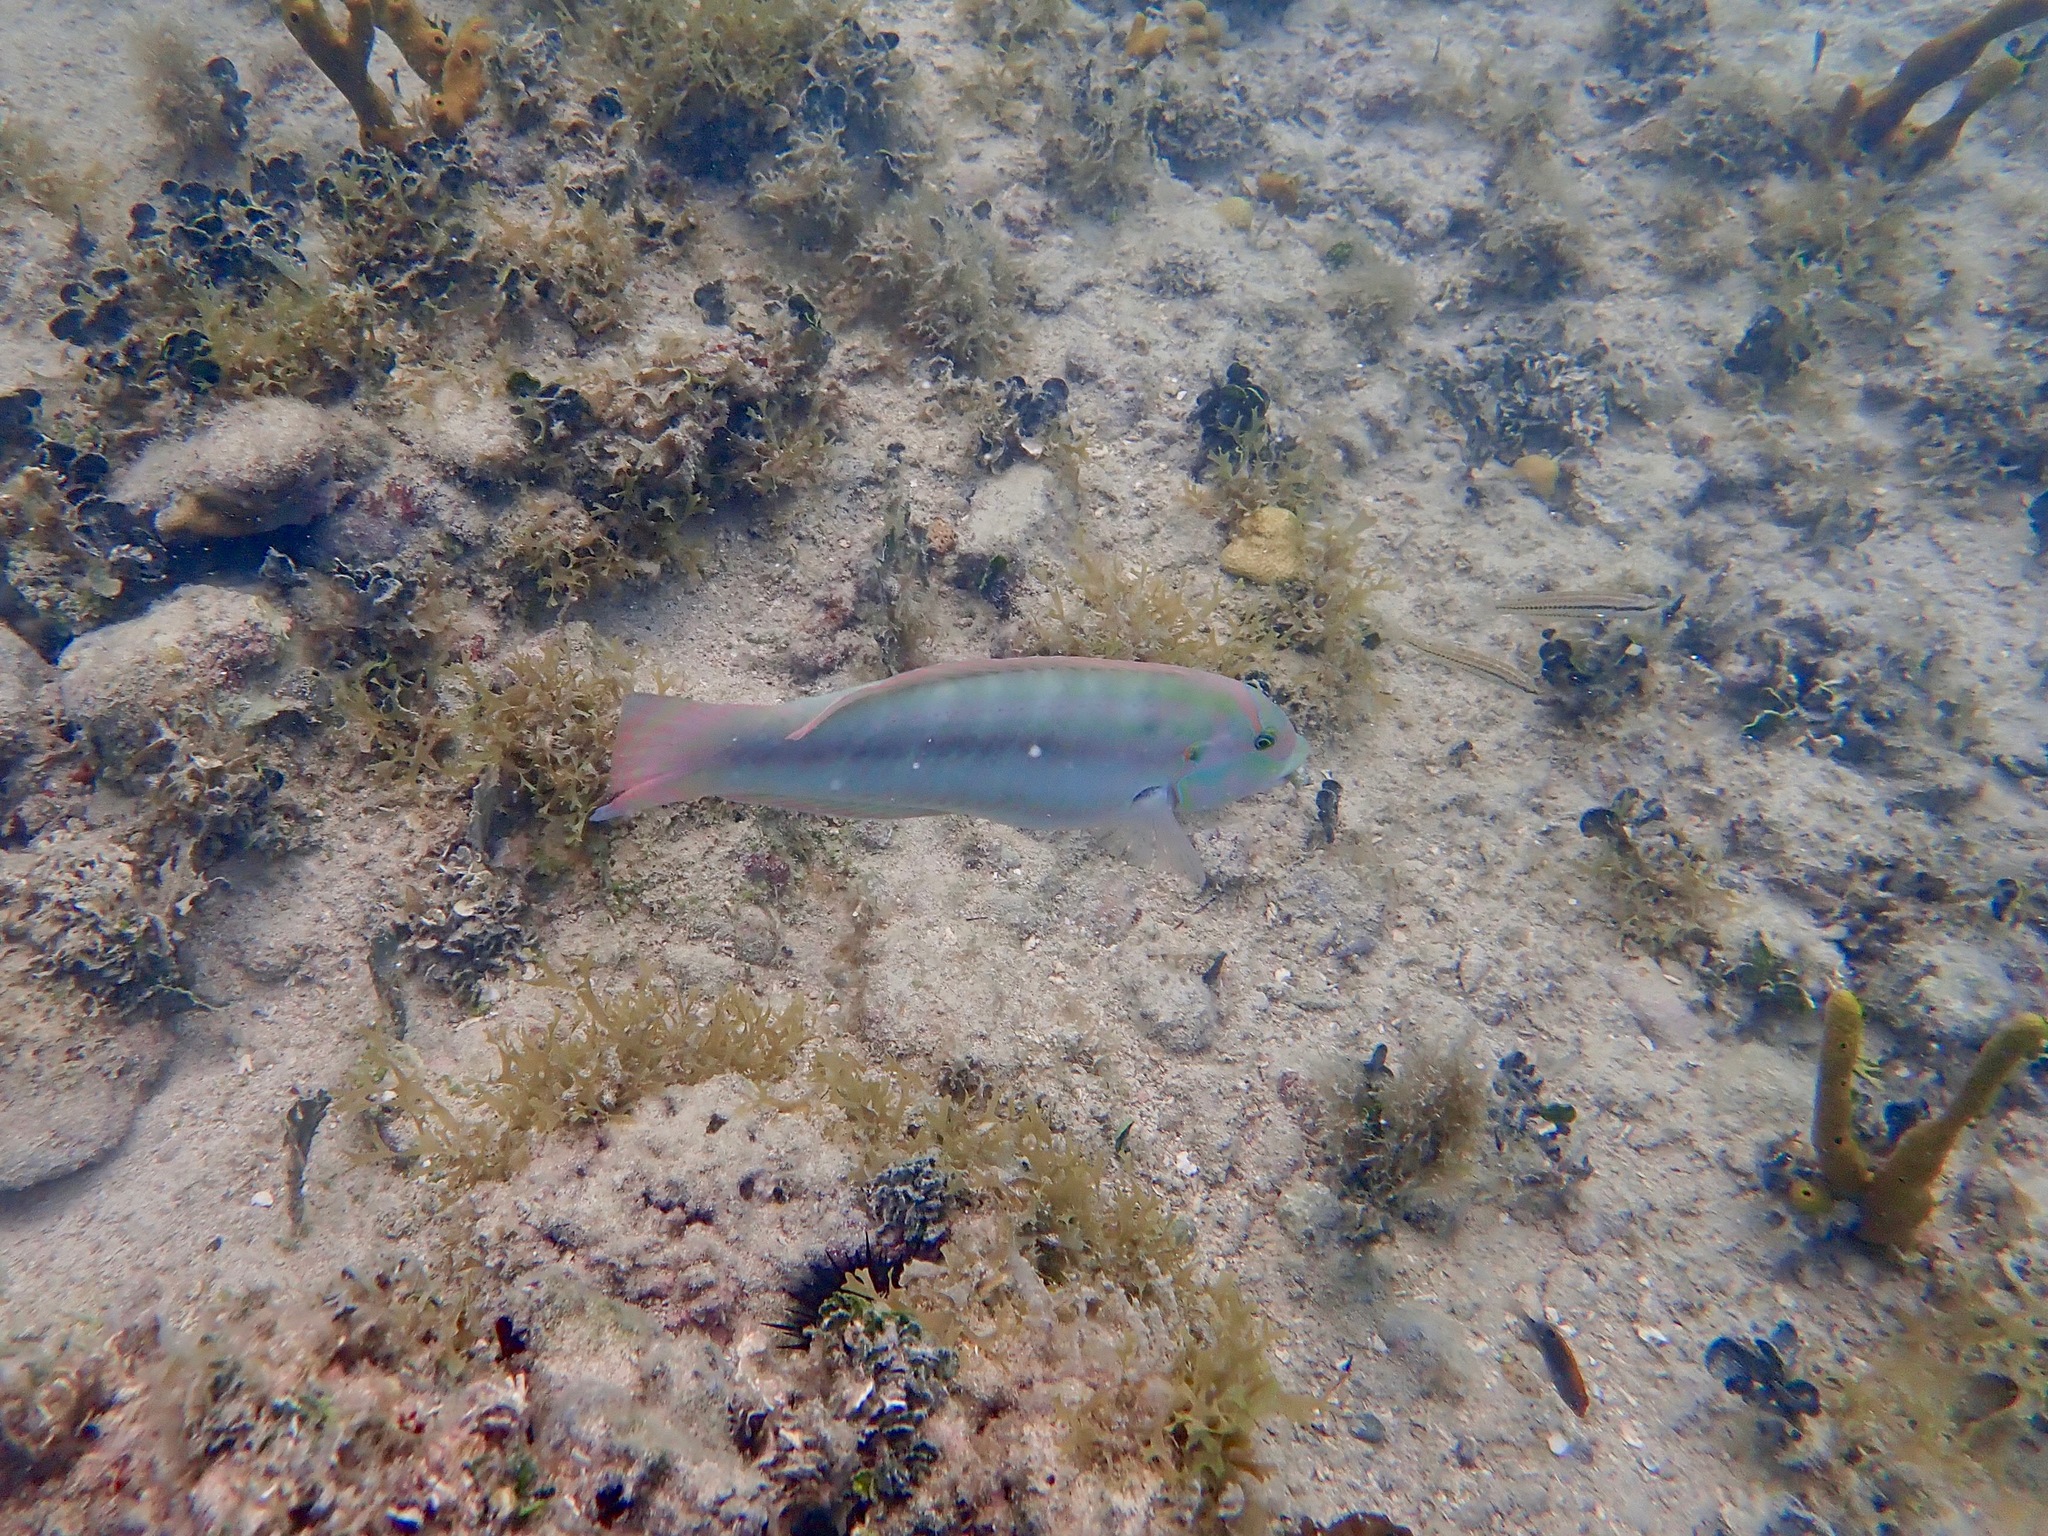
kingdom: Animalia
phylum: Chordata
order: Perciformes
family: Labridae
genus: Halichoeres
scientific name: Halichoeres bivittatus
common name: Slippery dick
